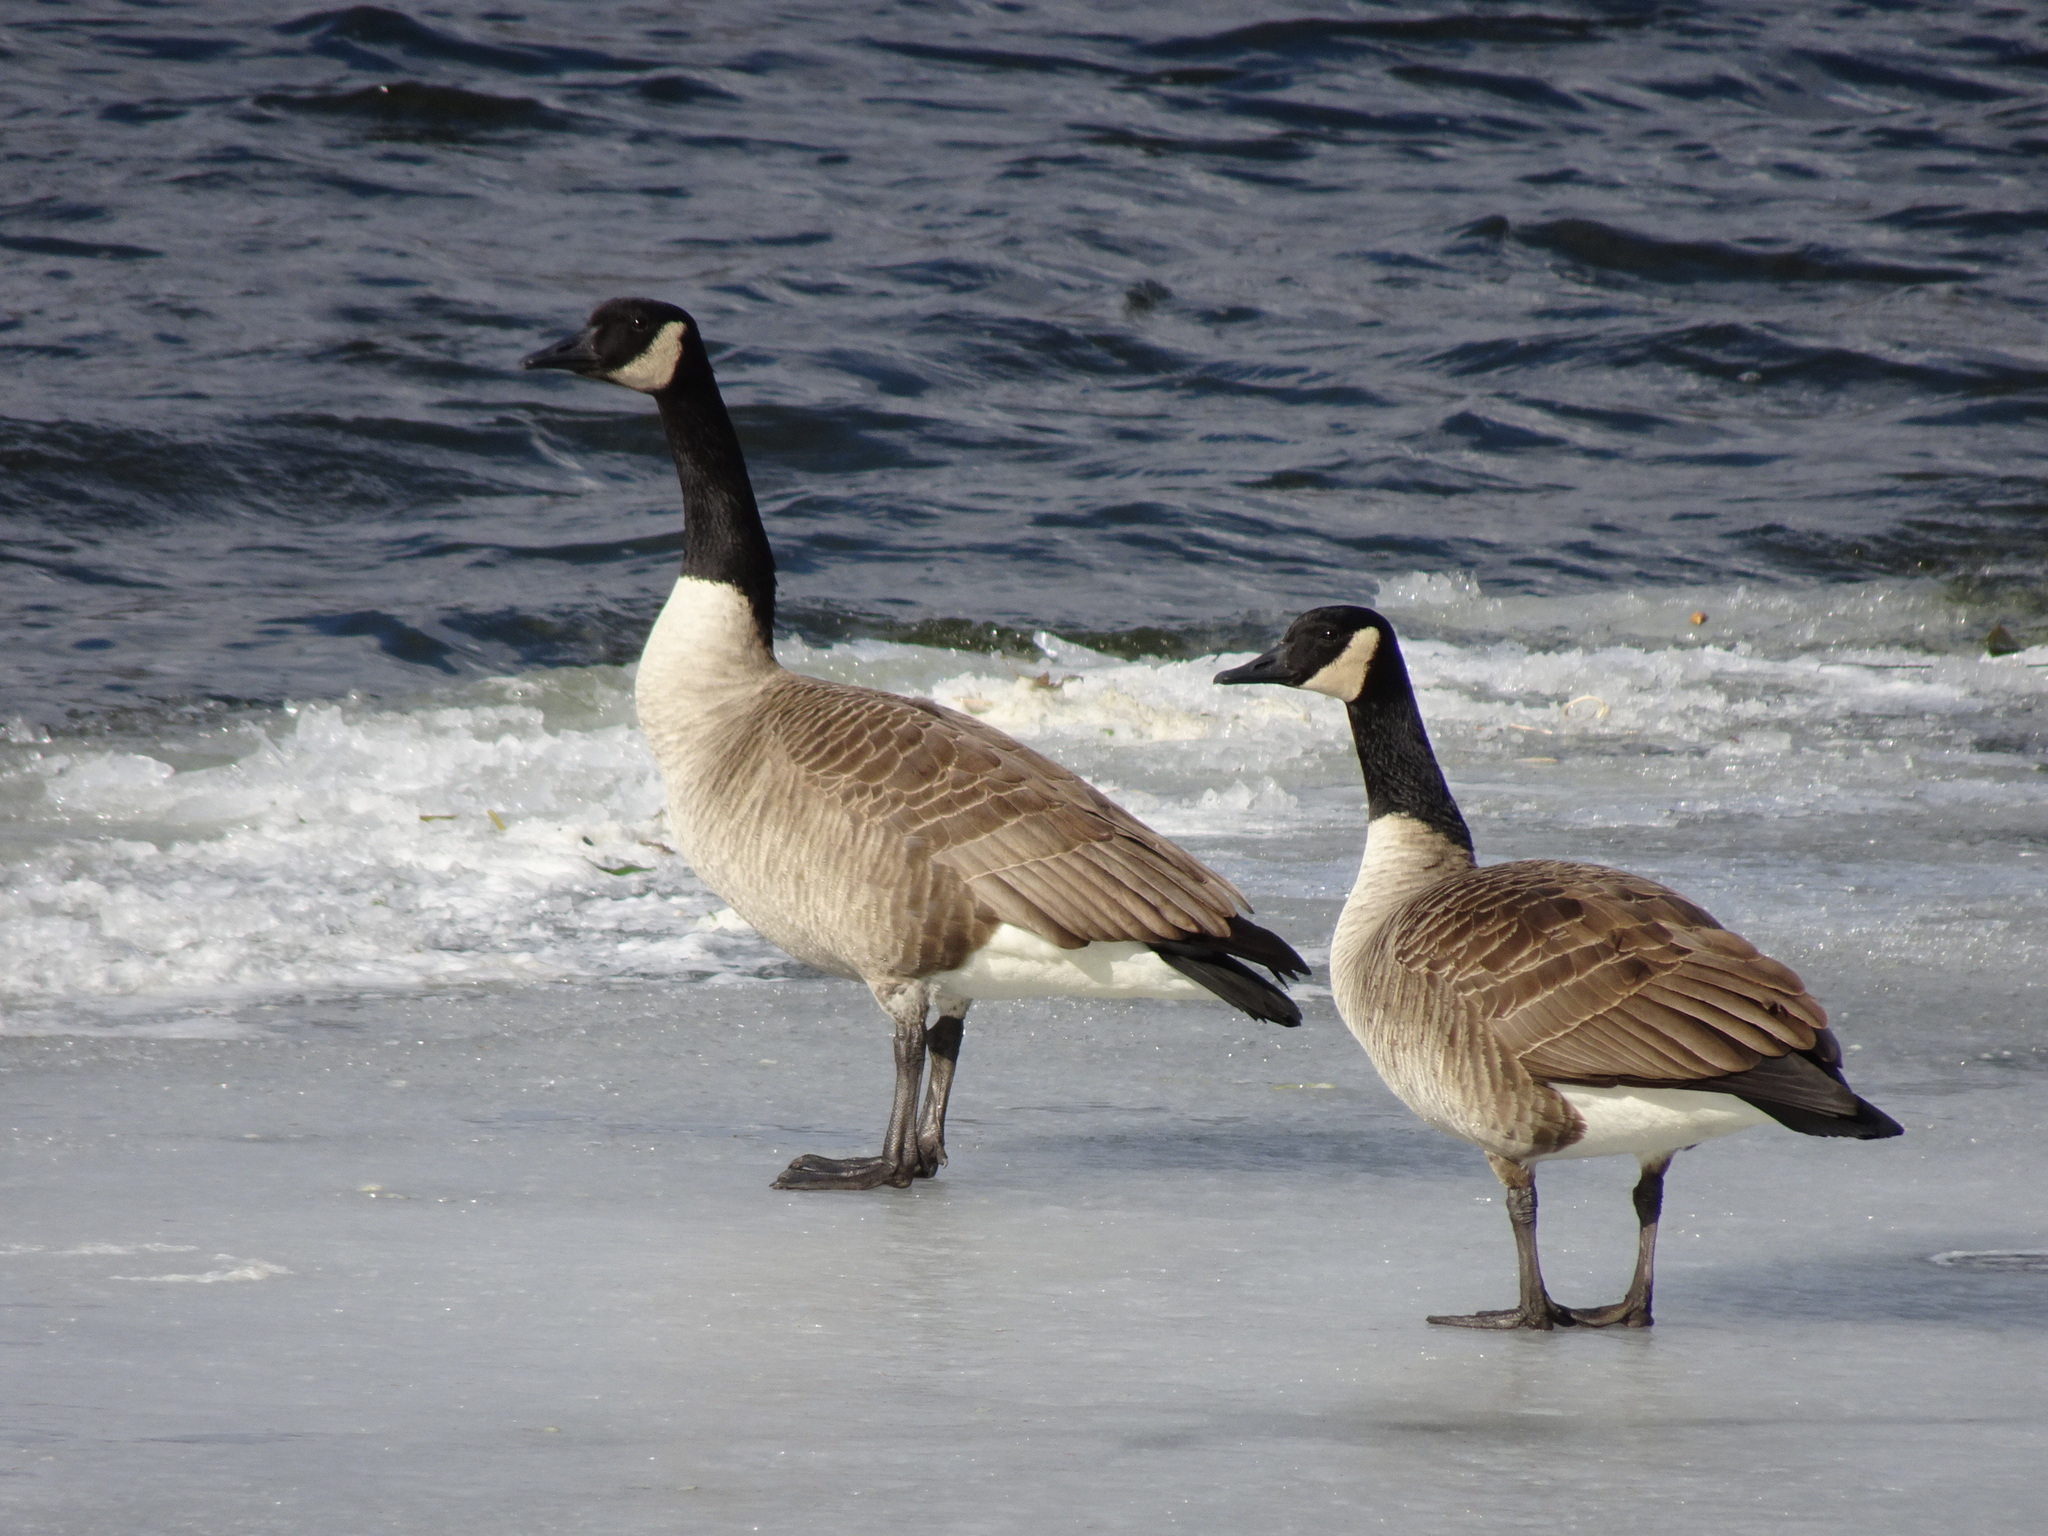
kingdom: Animalia
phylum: Chordata
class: Aves
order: Anseriformes
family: Anatidae
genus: Branta
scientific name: Branta canadensis
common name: Canada goose
